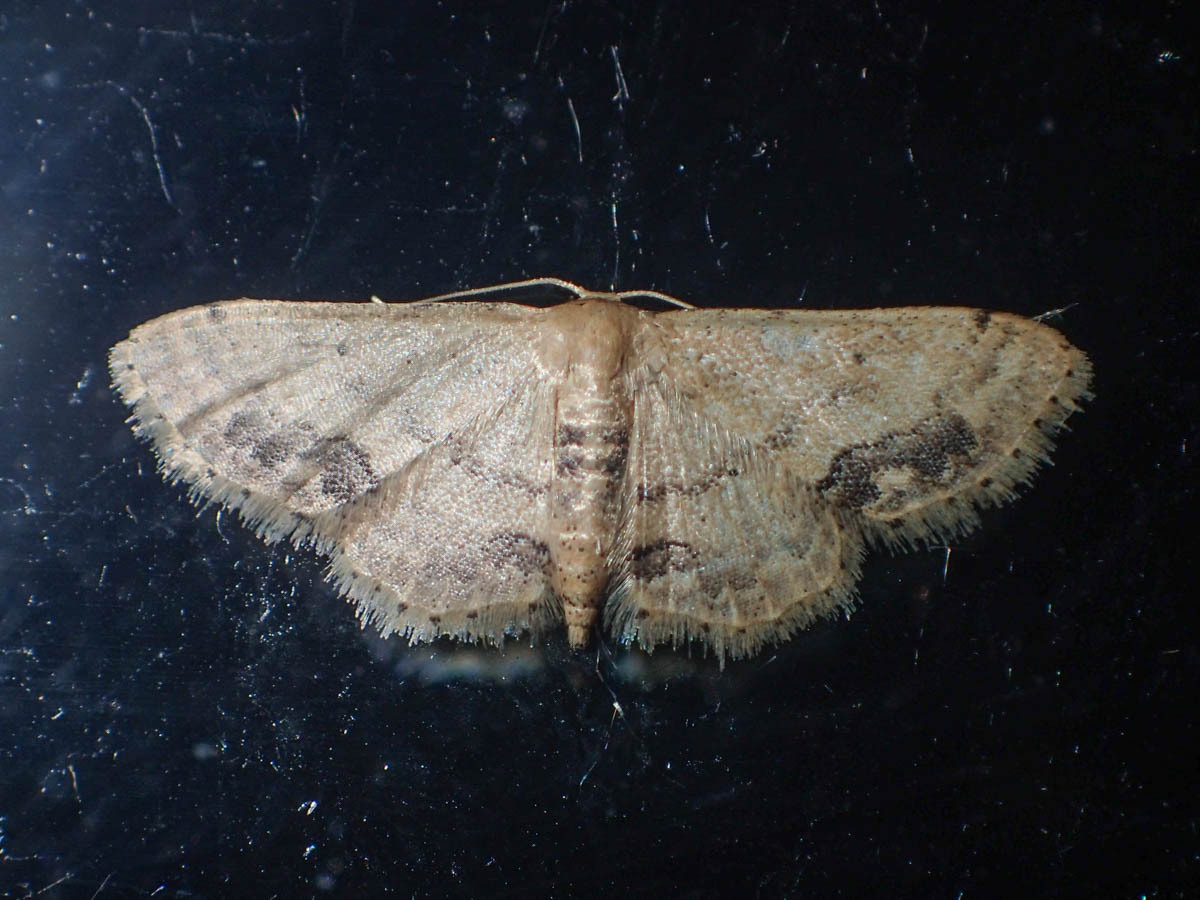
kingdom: Animalia
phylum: Arthropoda
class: Insecta
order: Lepidoptera
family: Geometridae
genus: Idaea
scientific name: Idaea chotaria
